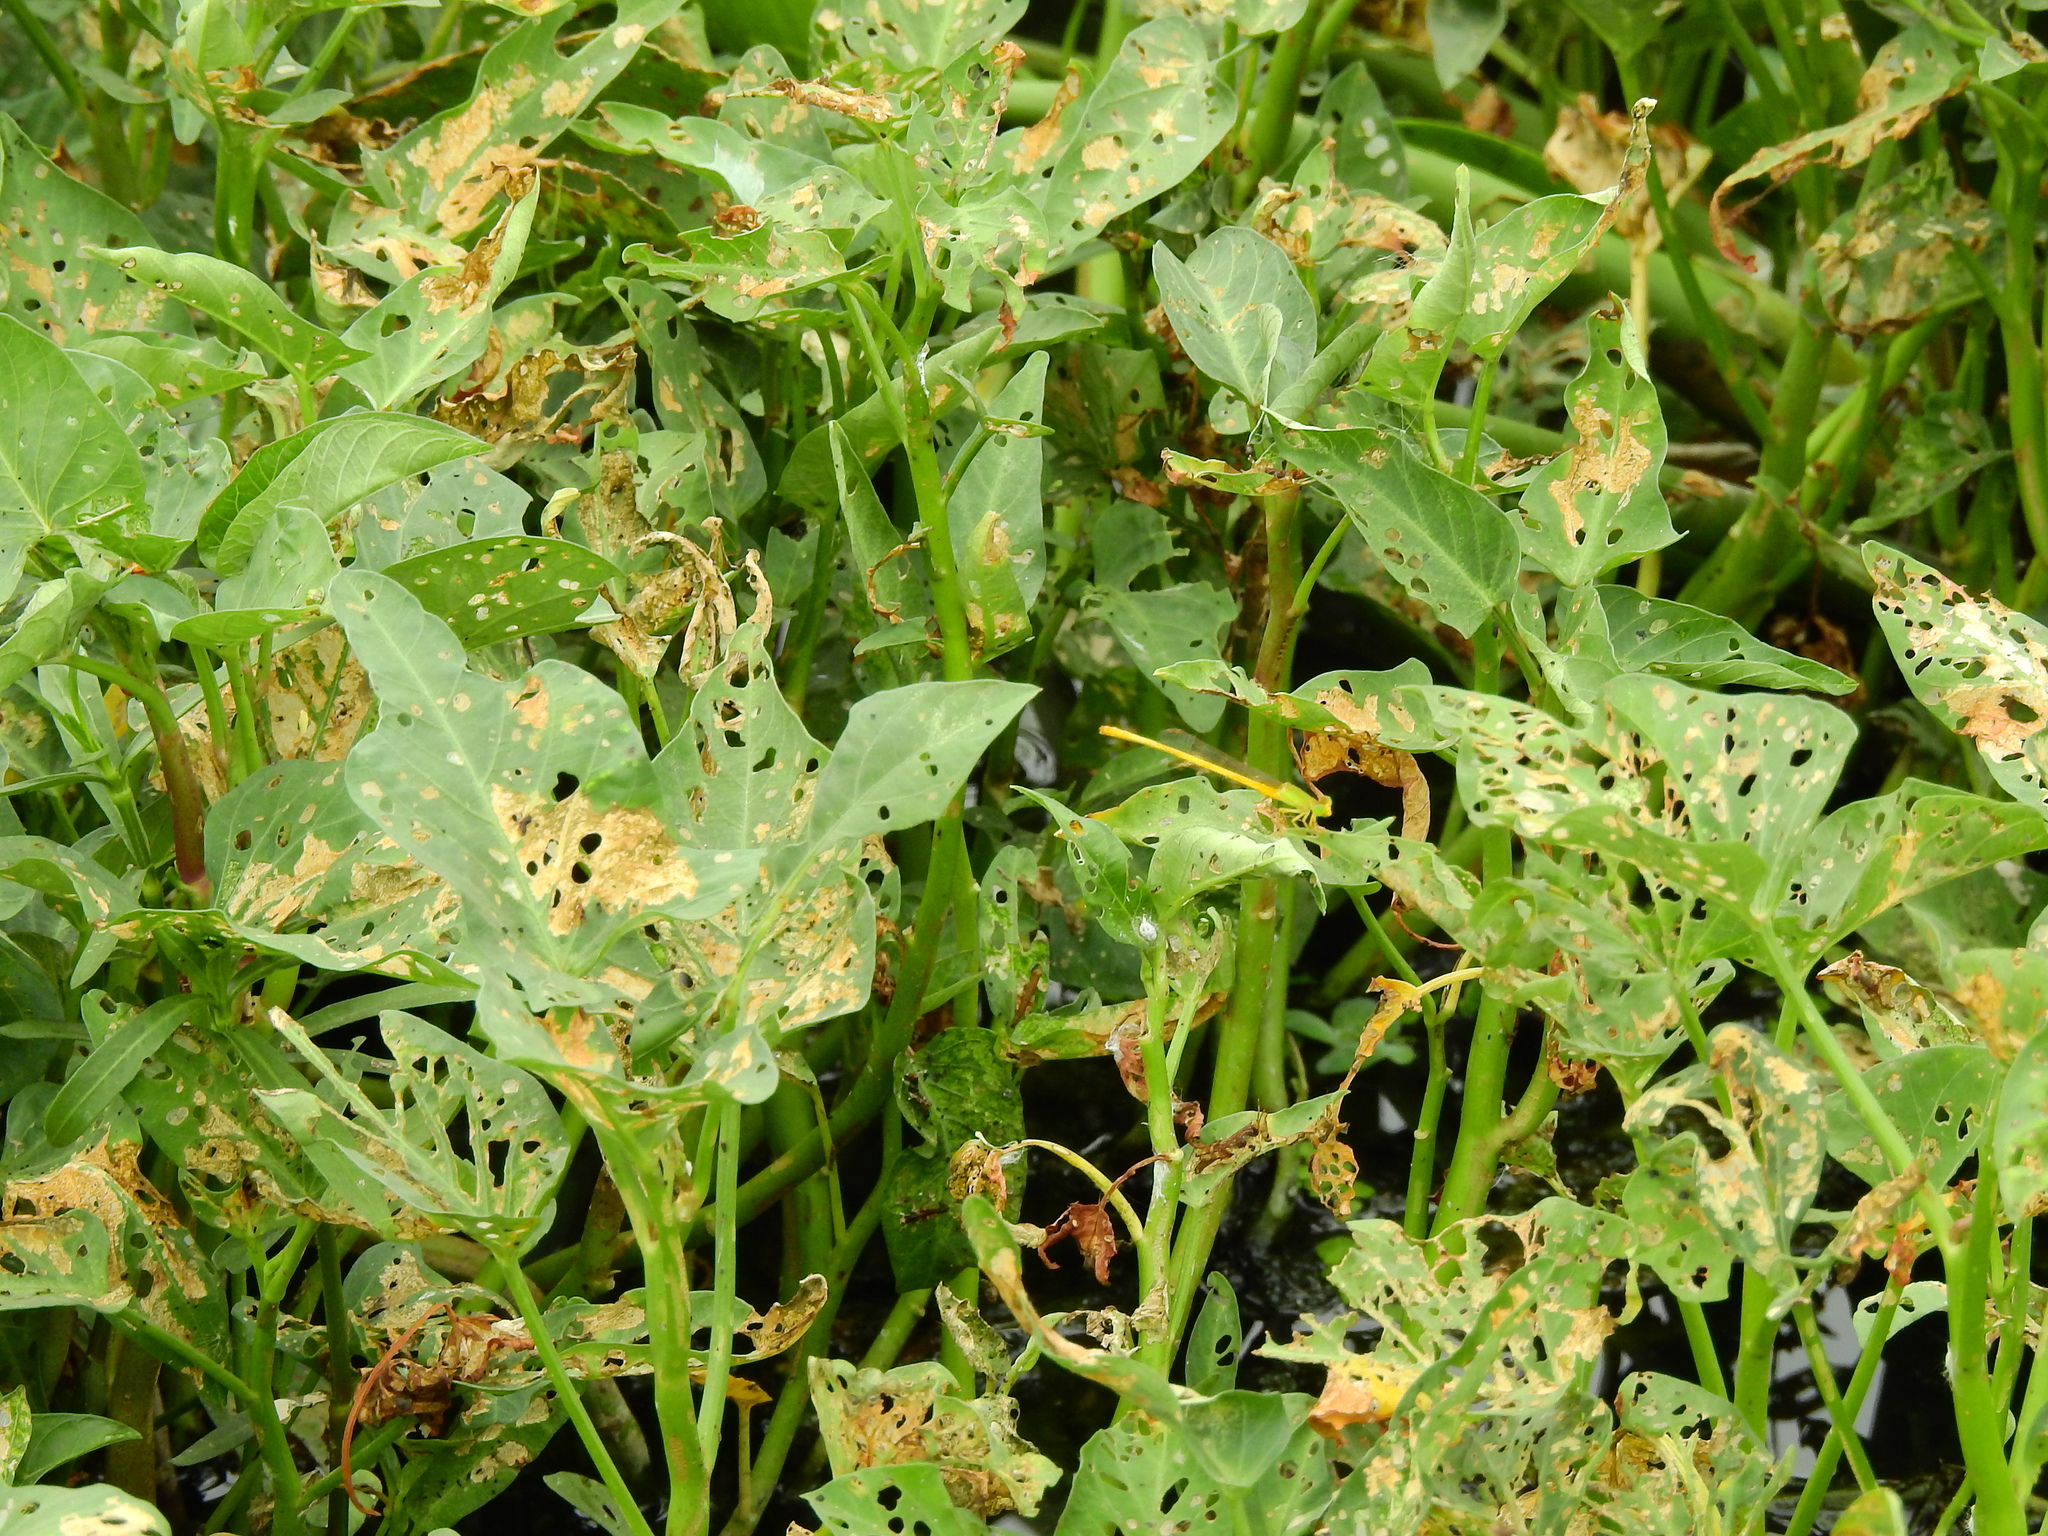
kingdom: Animalia
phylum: Arthropoda
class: Insecta
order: Odonata
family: Coenagrionidae
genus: Ceriagrion
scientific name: Ceriagrion coromandelianum
